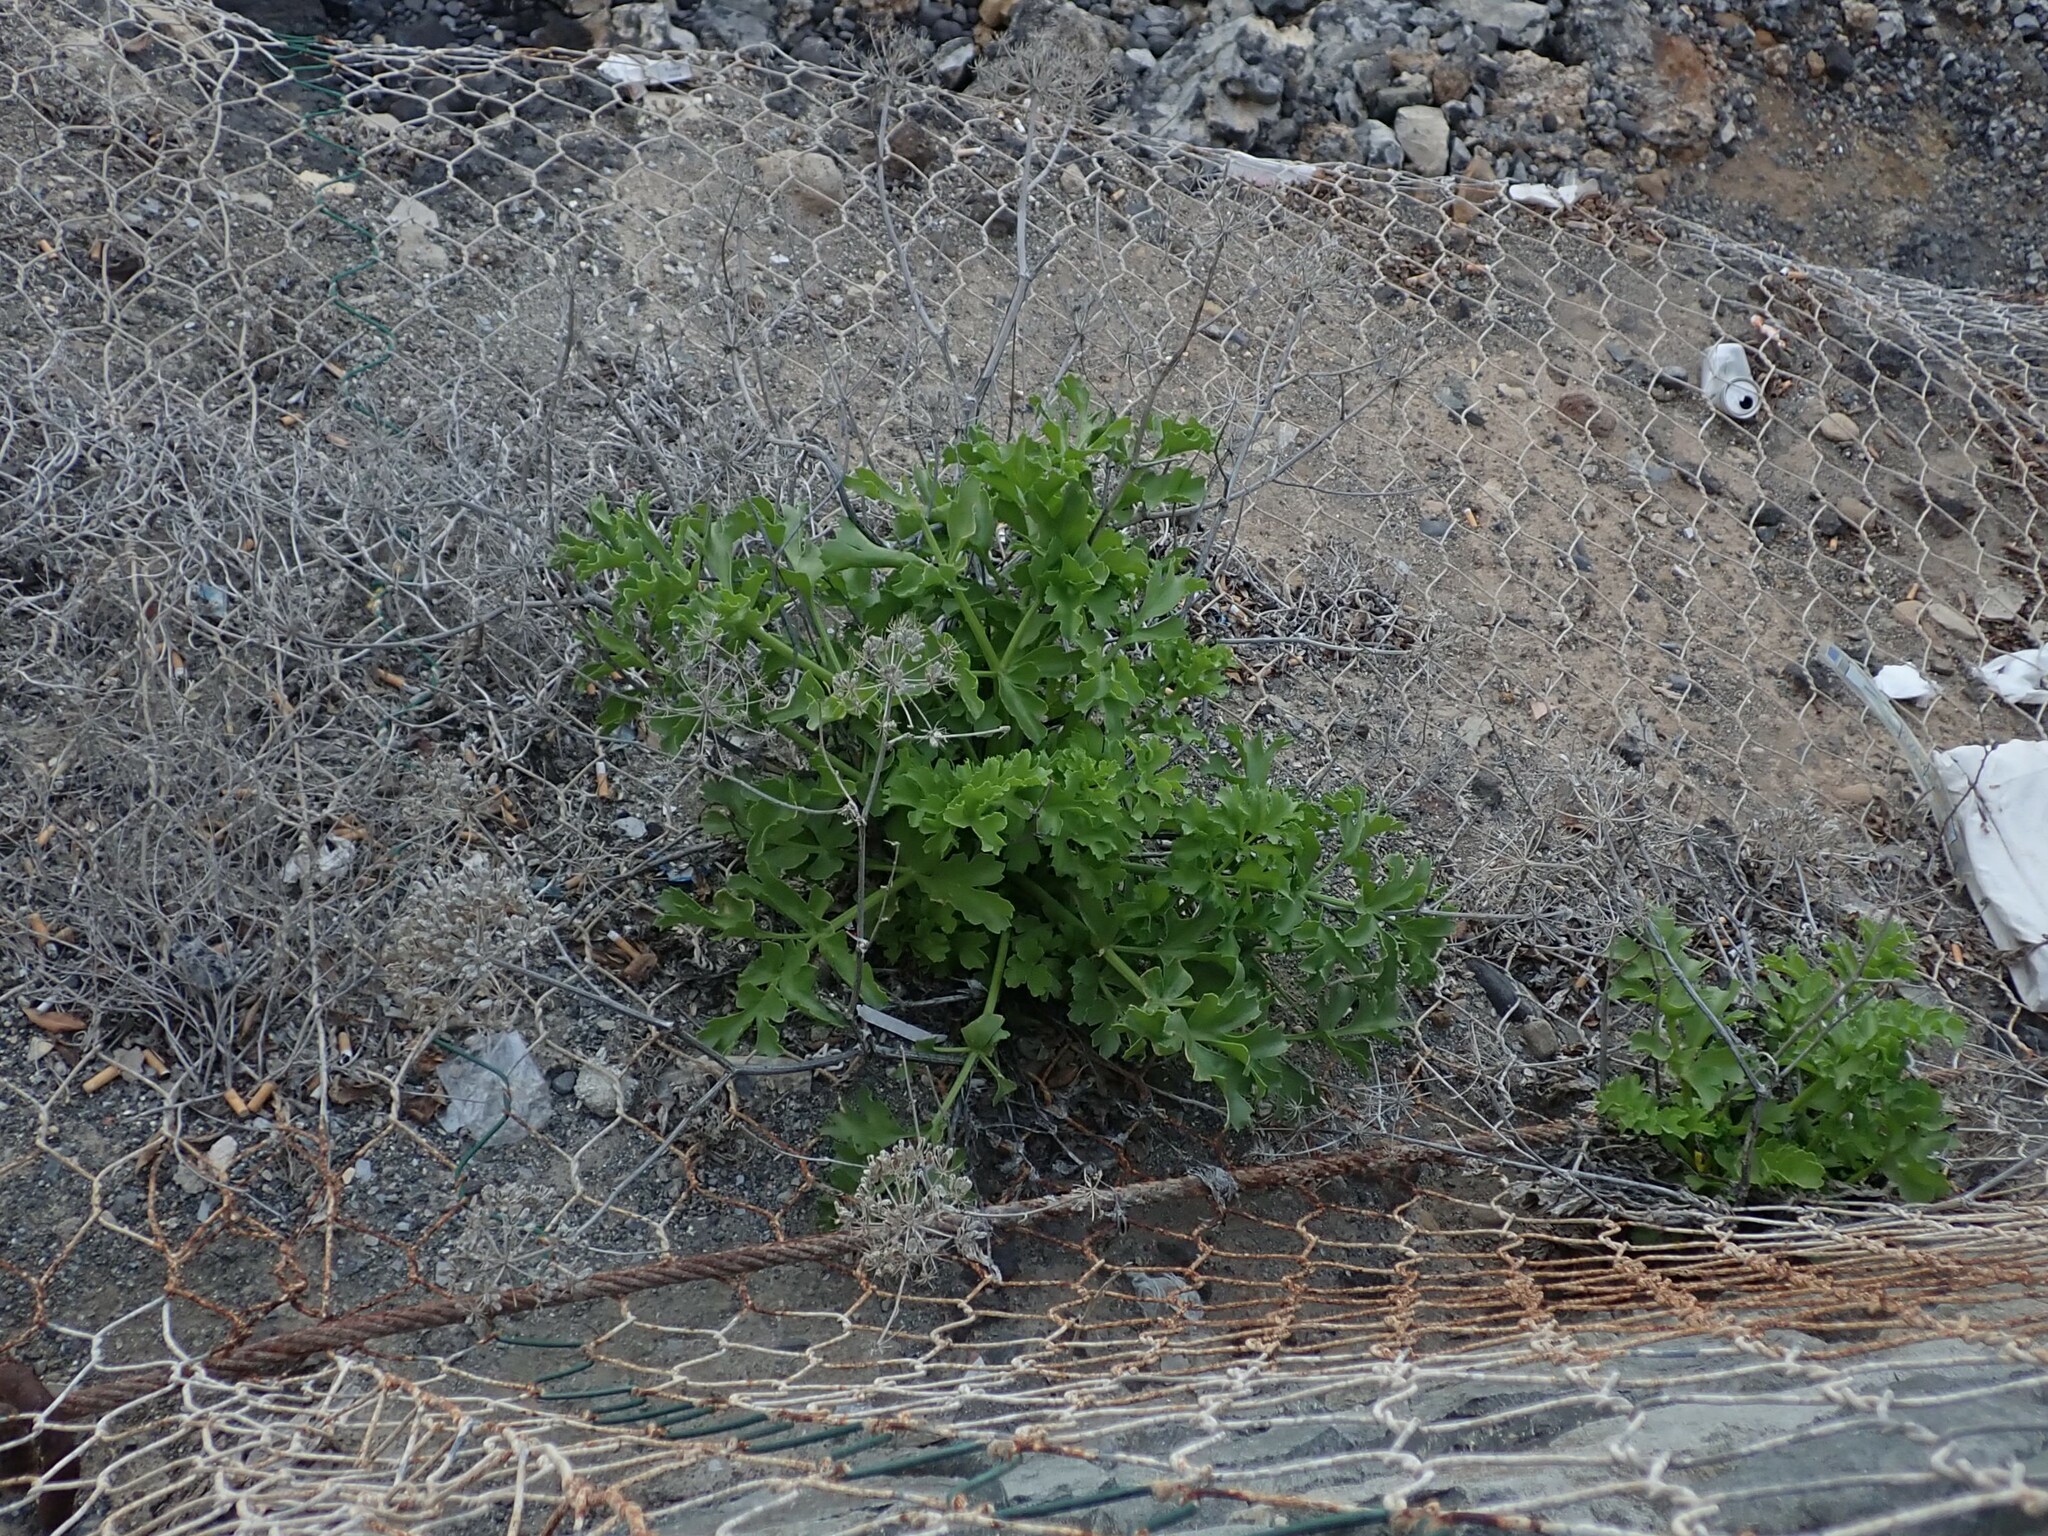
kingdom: Plantae
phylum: Tracheophyta
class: Magnoliopsida
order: Apiales
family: Apiaceae
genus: Astydamia
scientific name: Astydamia latifolia
